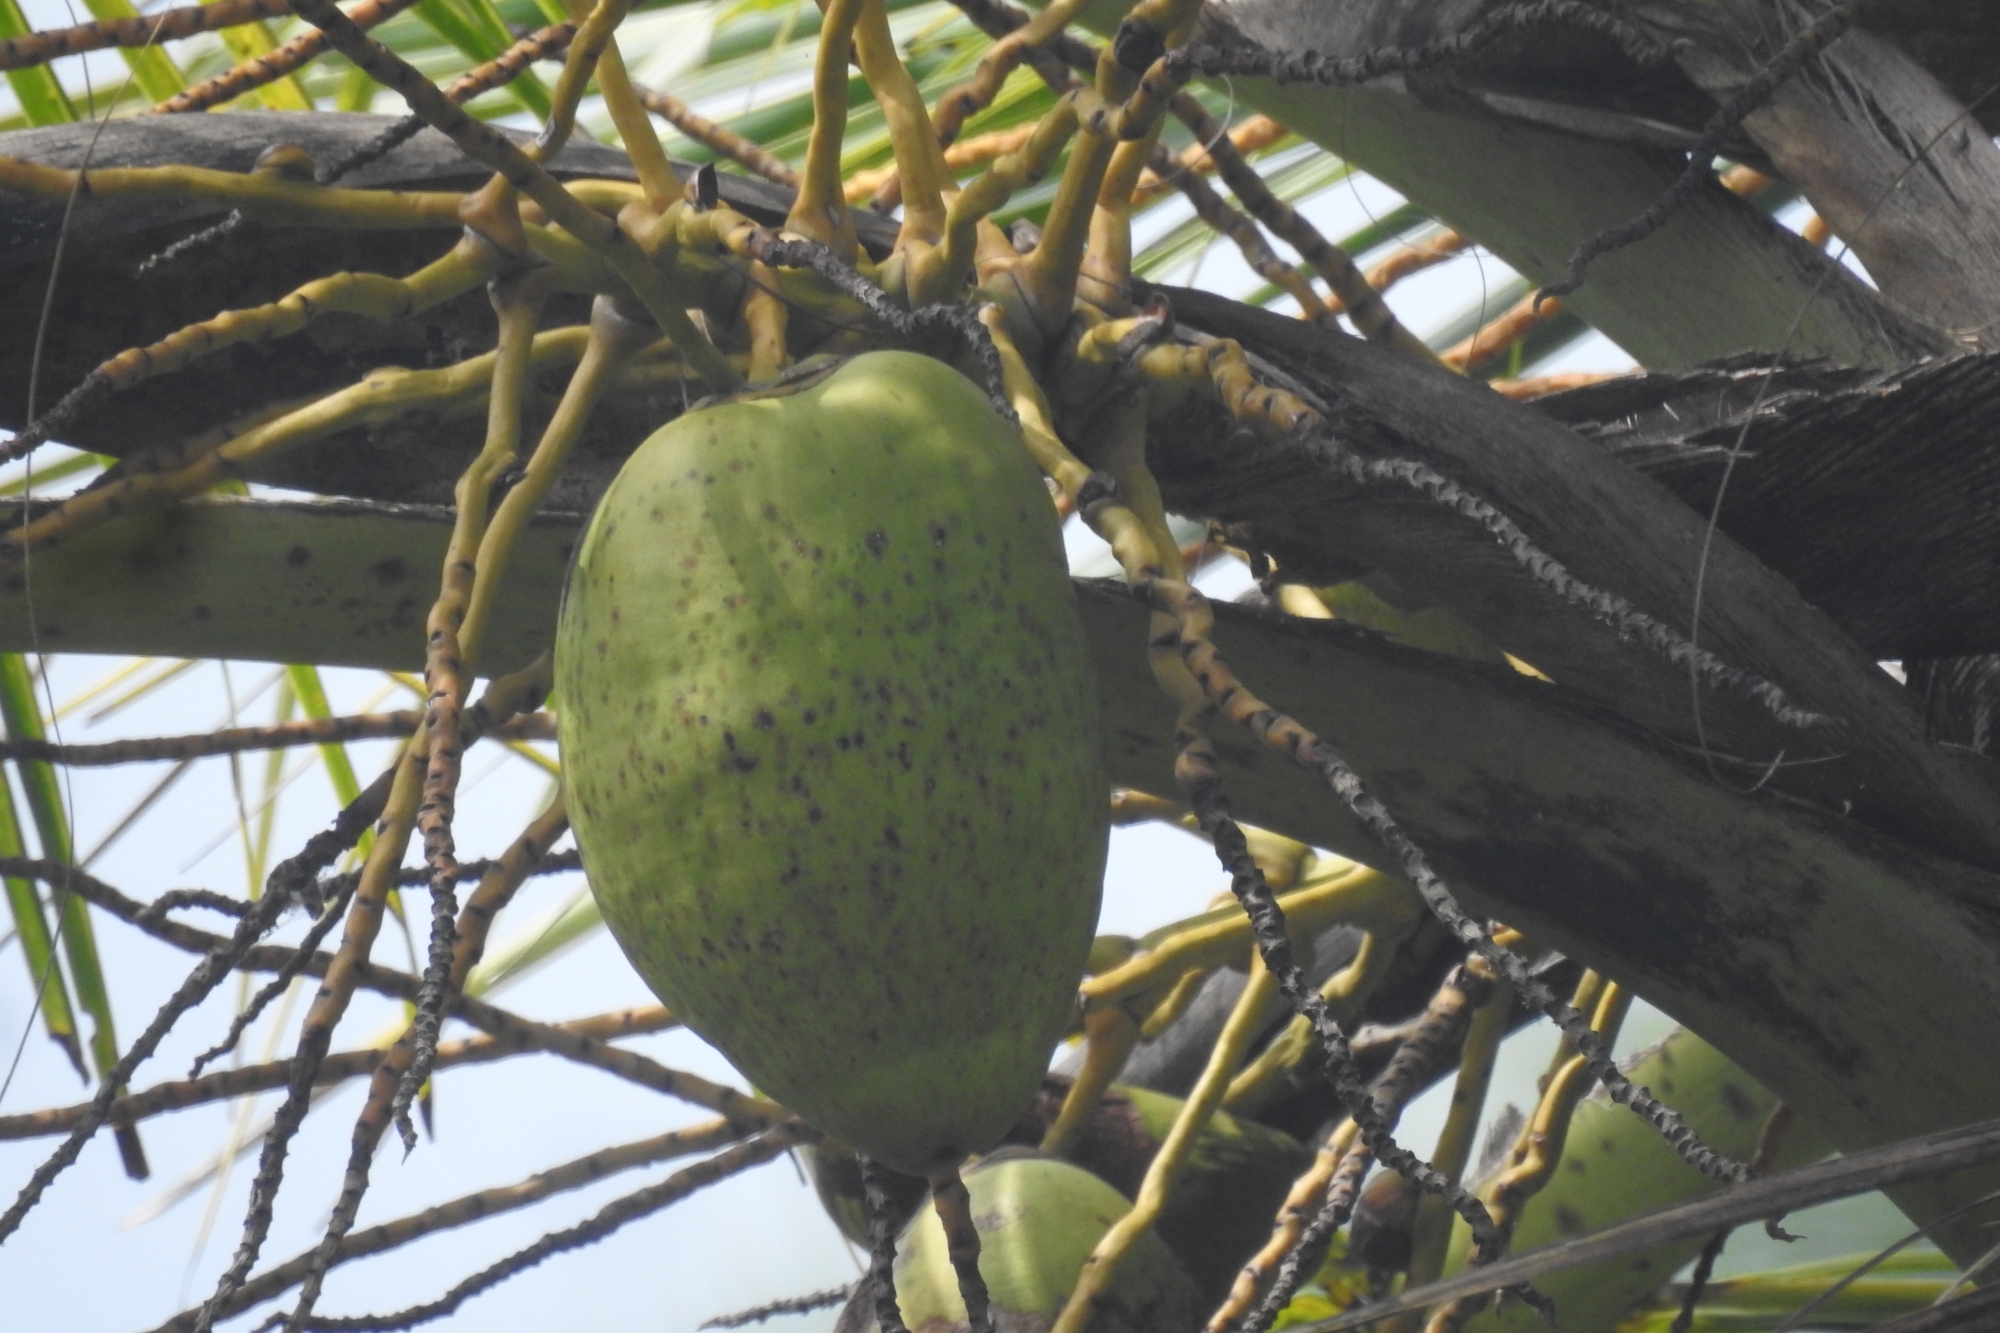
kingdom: Plantae
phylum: Tracheophyta
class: Liliopsida
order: Arecales
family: Arecaceae
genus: Cocos
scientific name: Cocos nucifera
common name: Coconut palm
